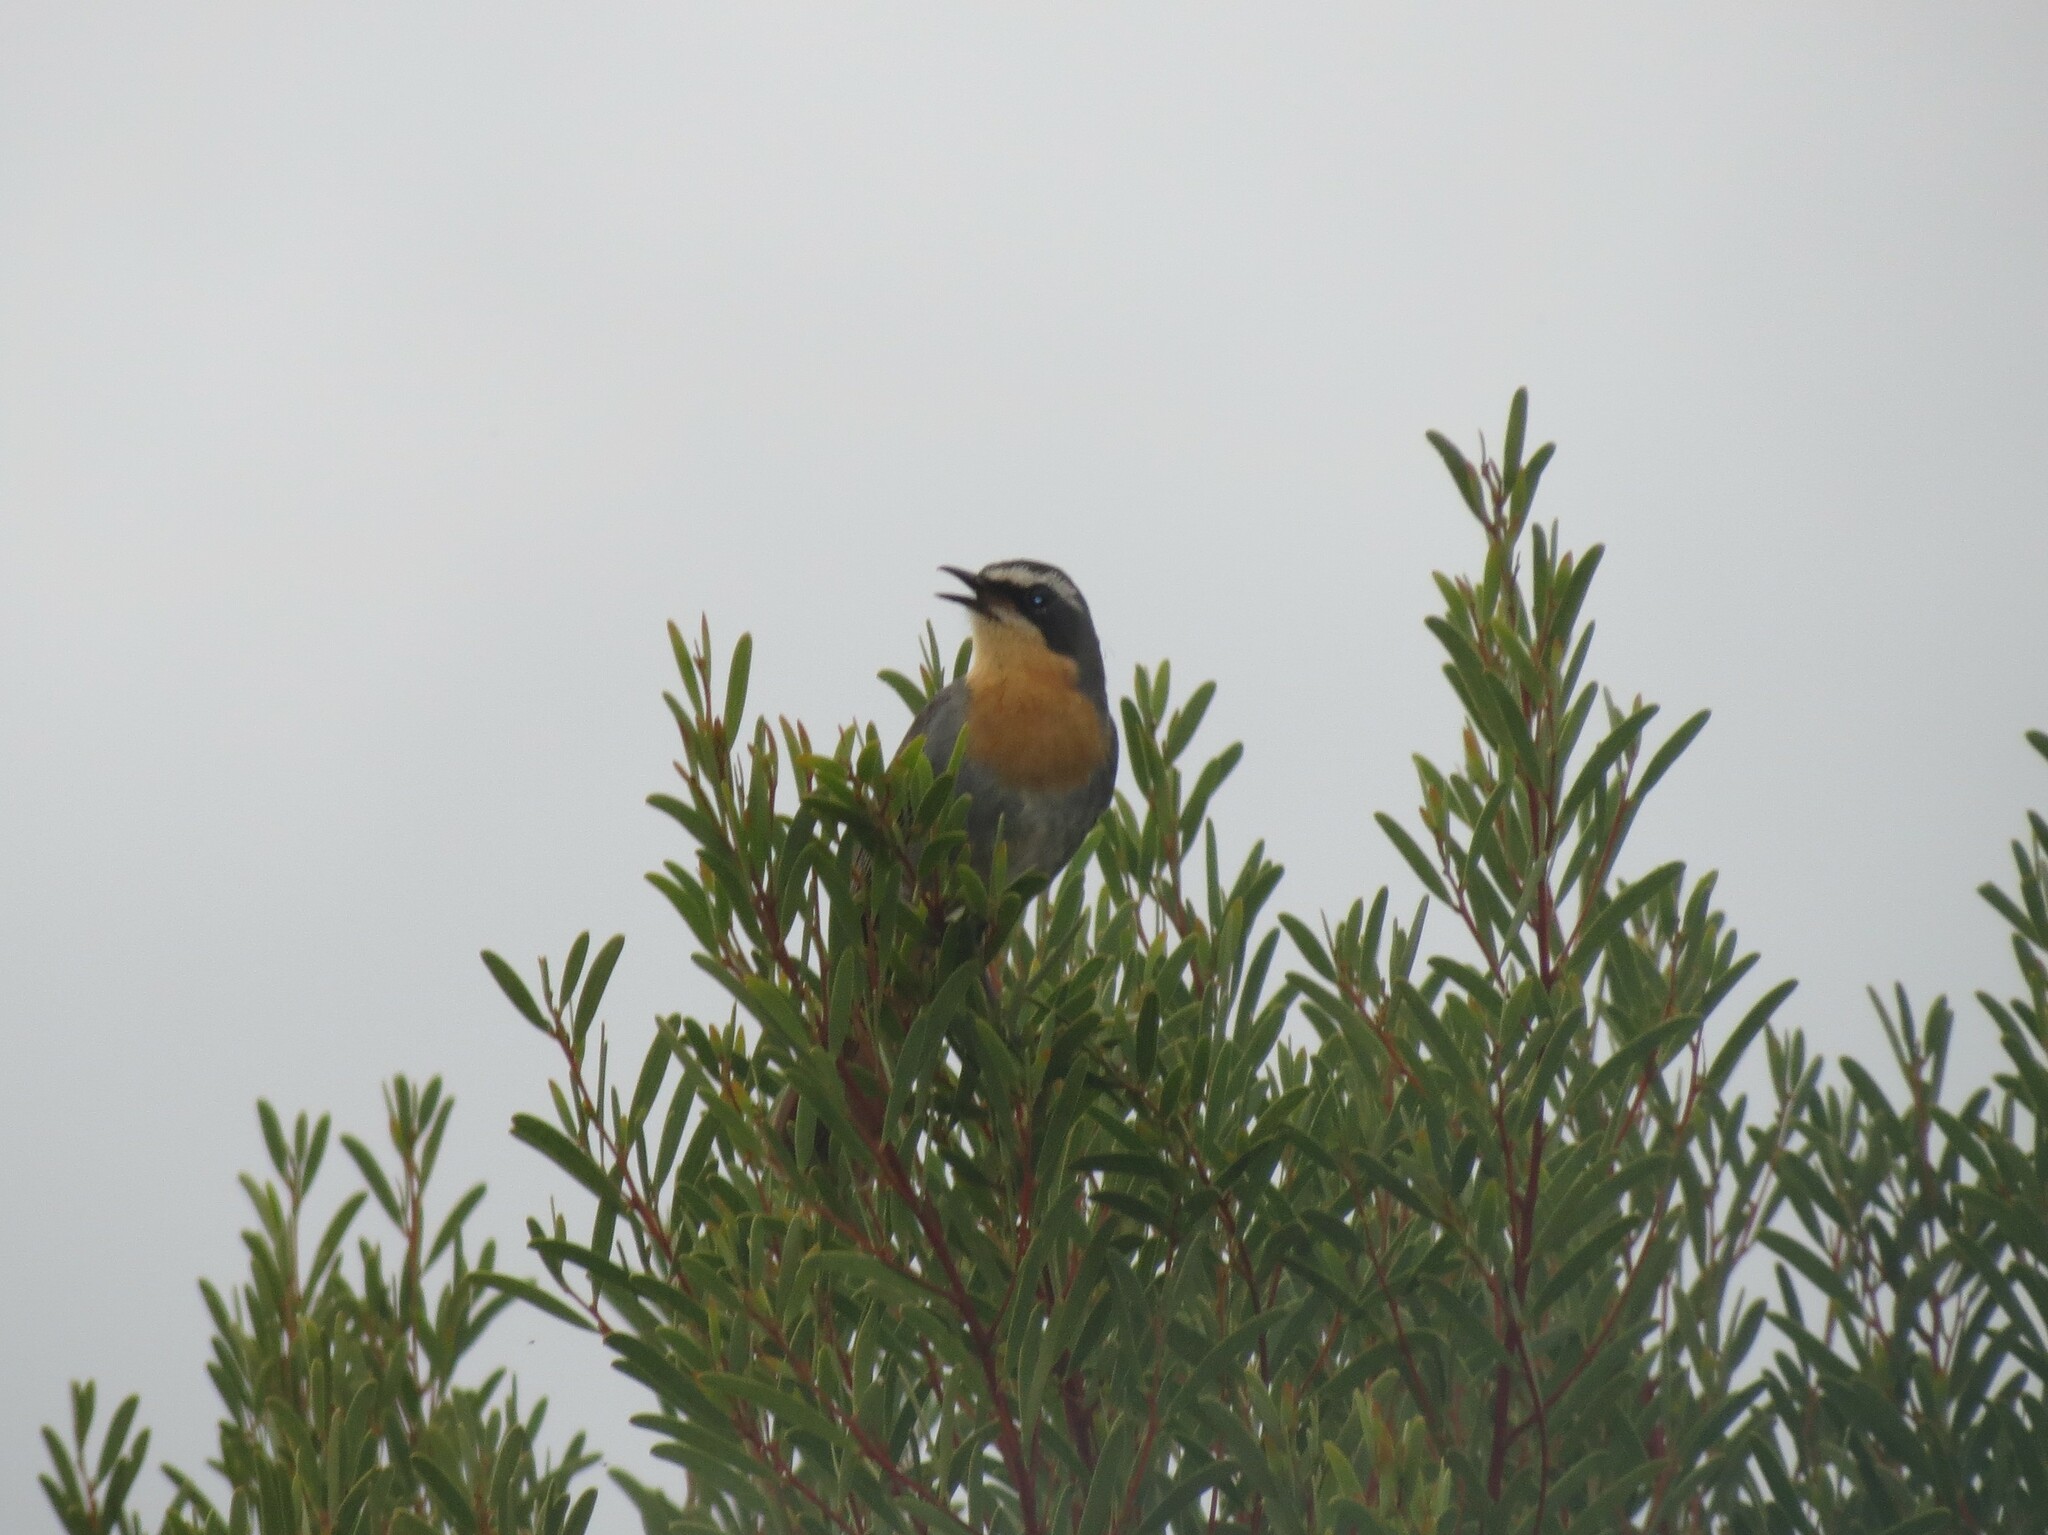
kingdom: Animalia
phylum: Chordata
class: Aves
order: Passeriformes
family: Muscicapidae
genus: Cossypha
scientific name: Cossypha caffra
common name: Cape robin-chat
